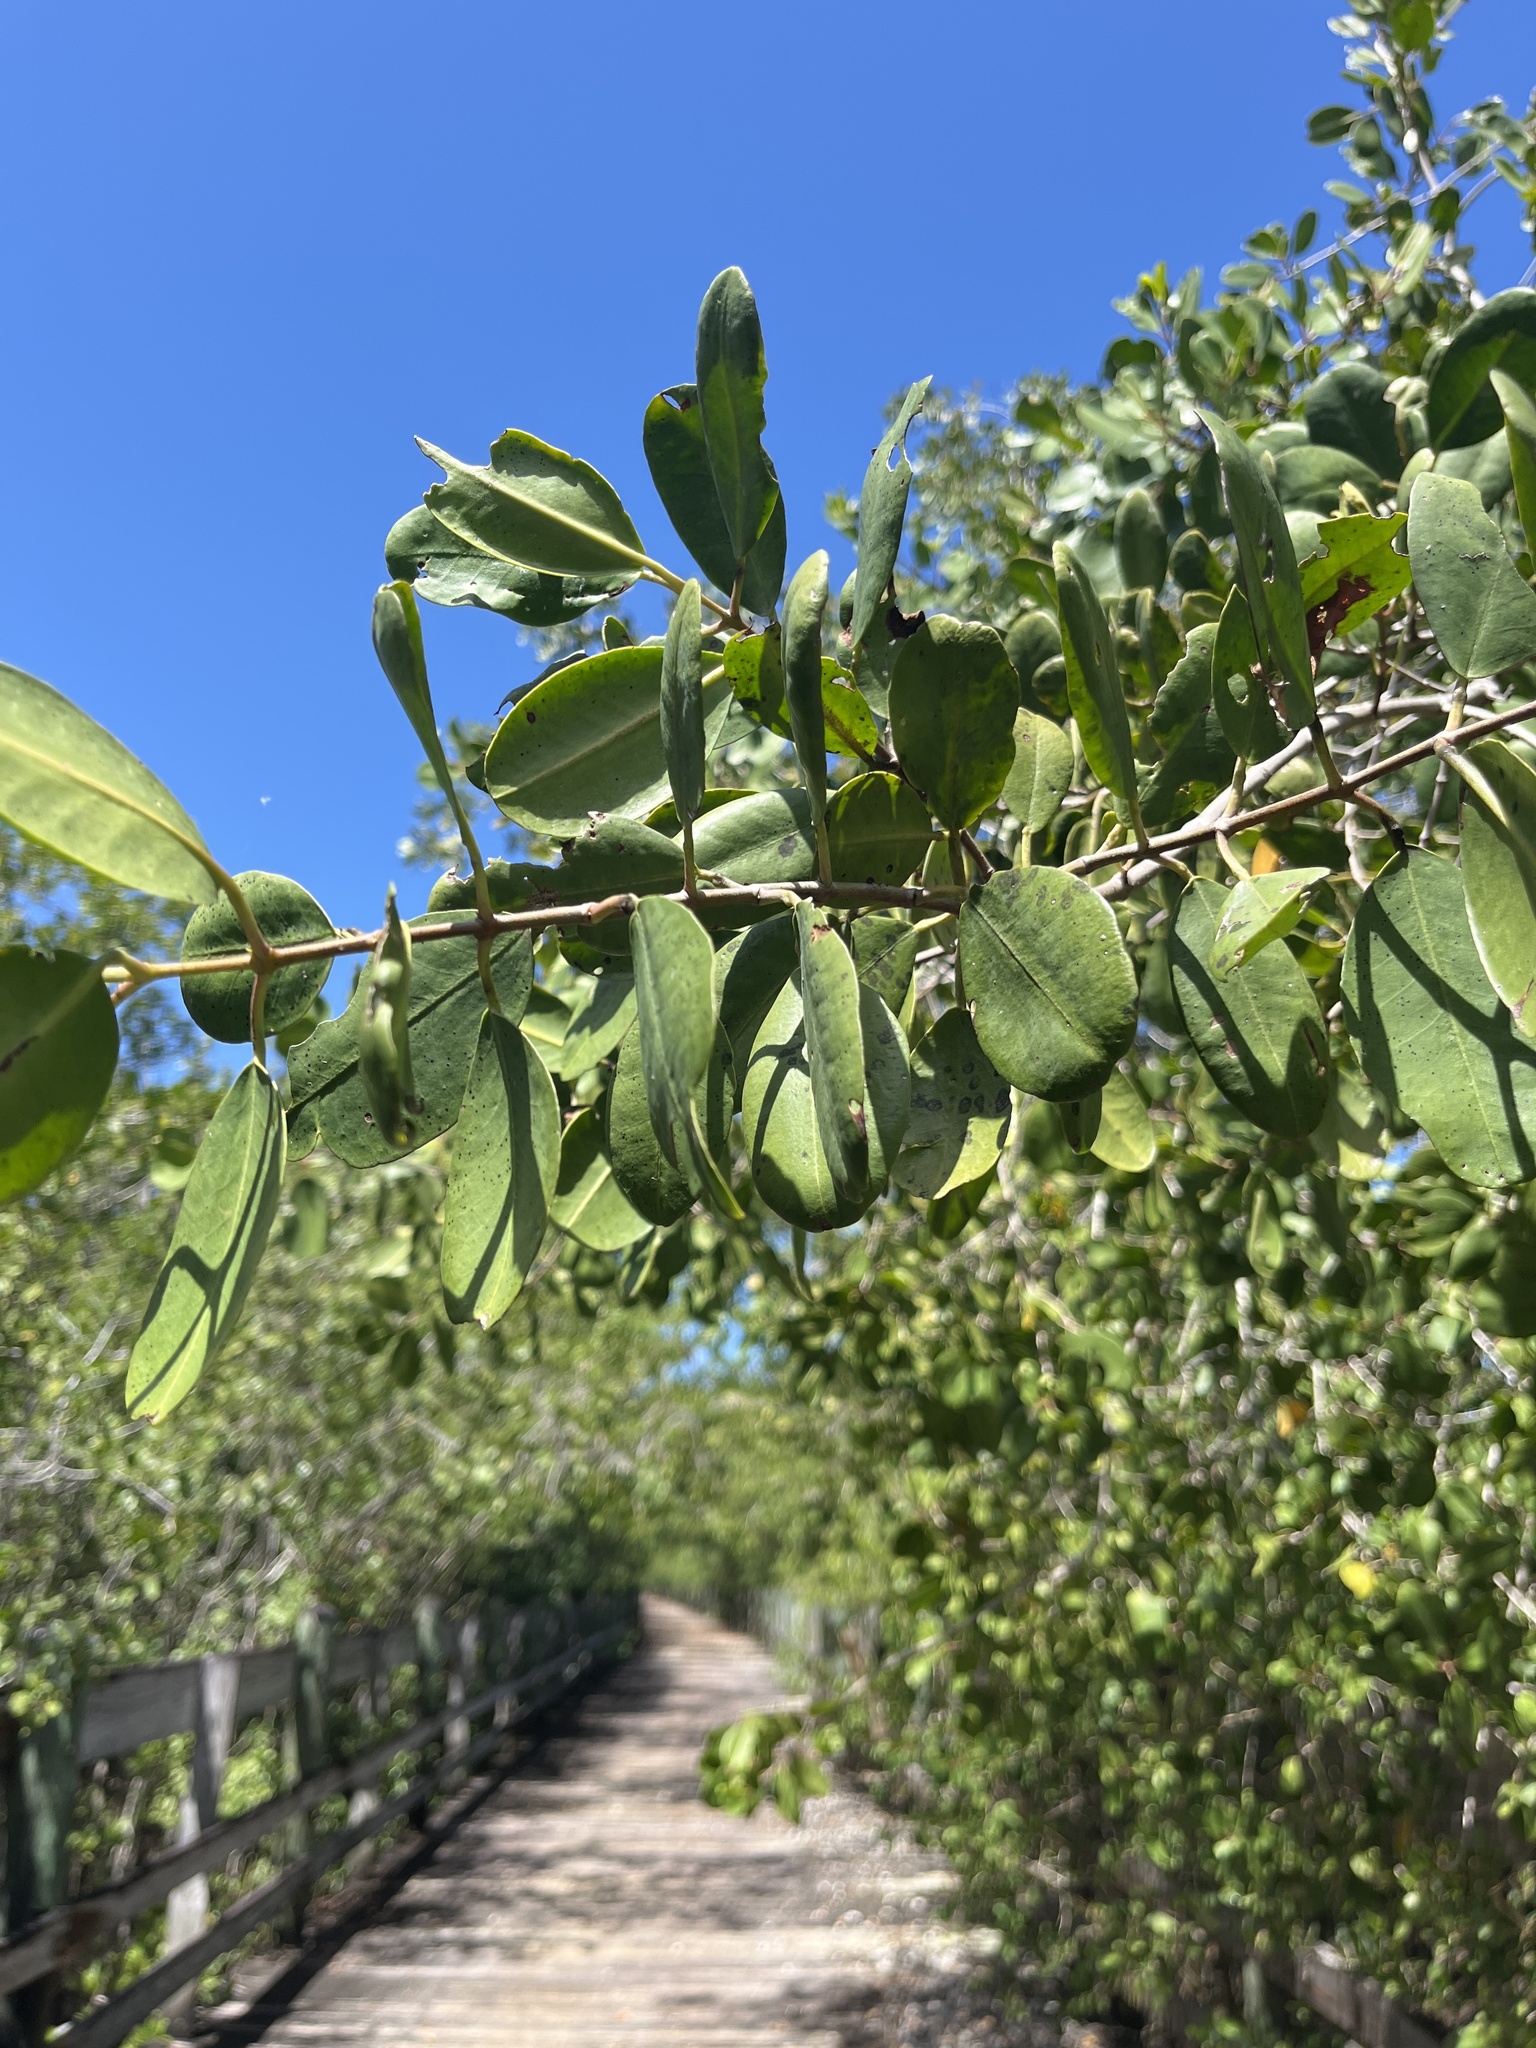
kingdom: Plantae
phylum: Tracheophyta
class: Magnoliopsida
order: Myrtales
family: Combretaceae
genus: Laguncularia
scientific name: Laguncularia racemosa
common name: White mangrove
